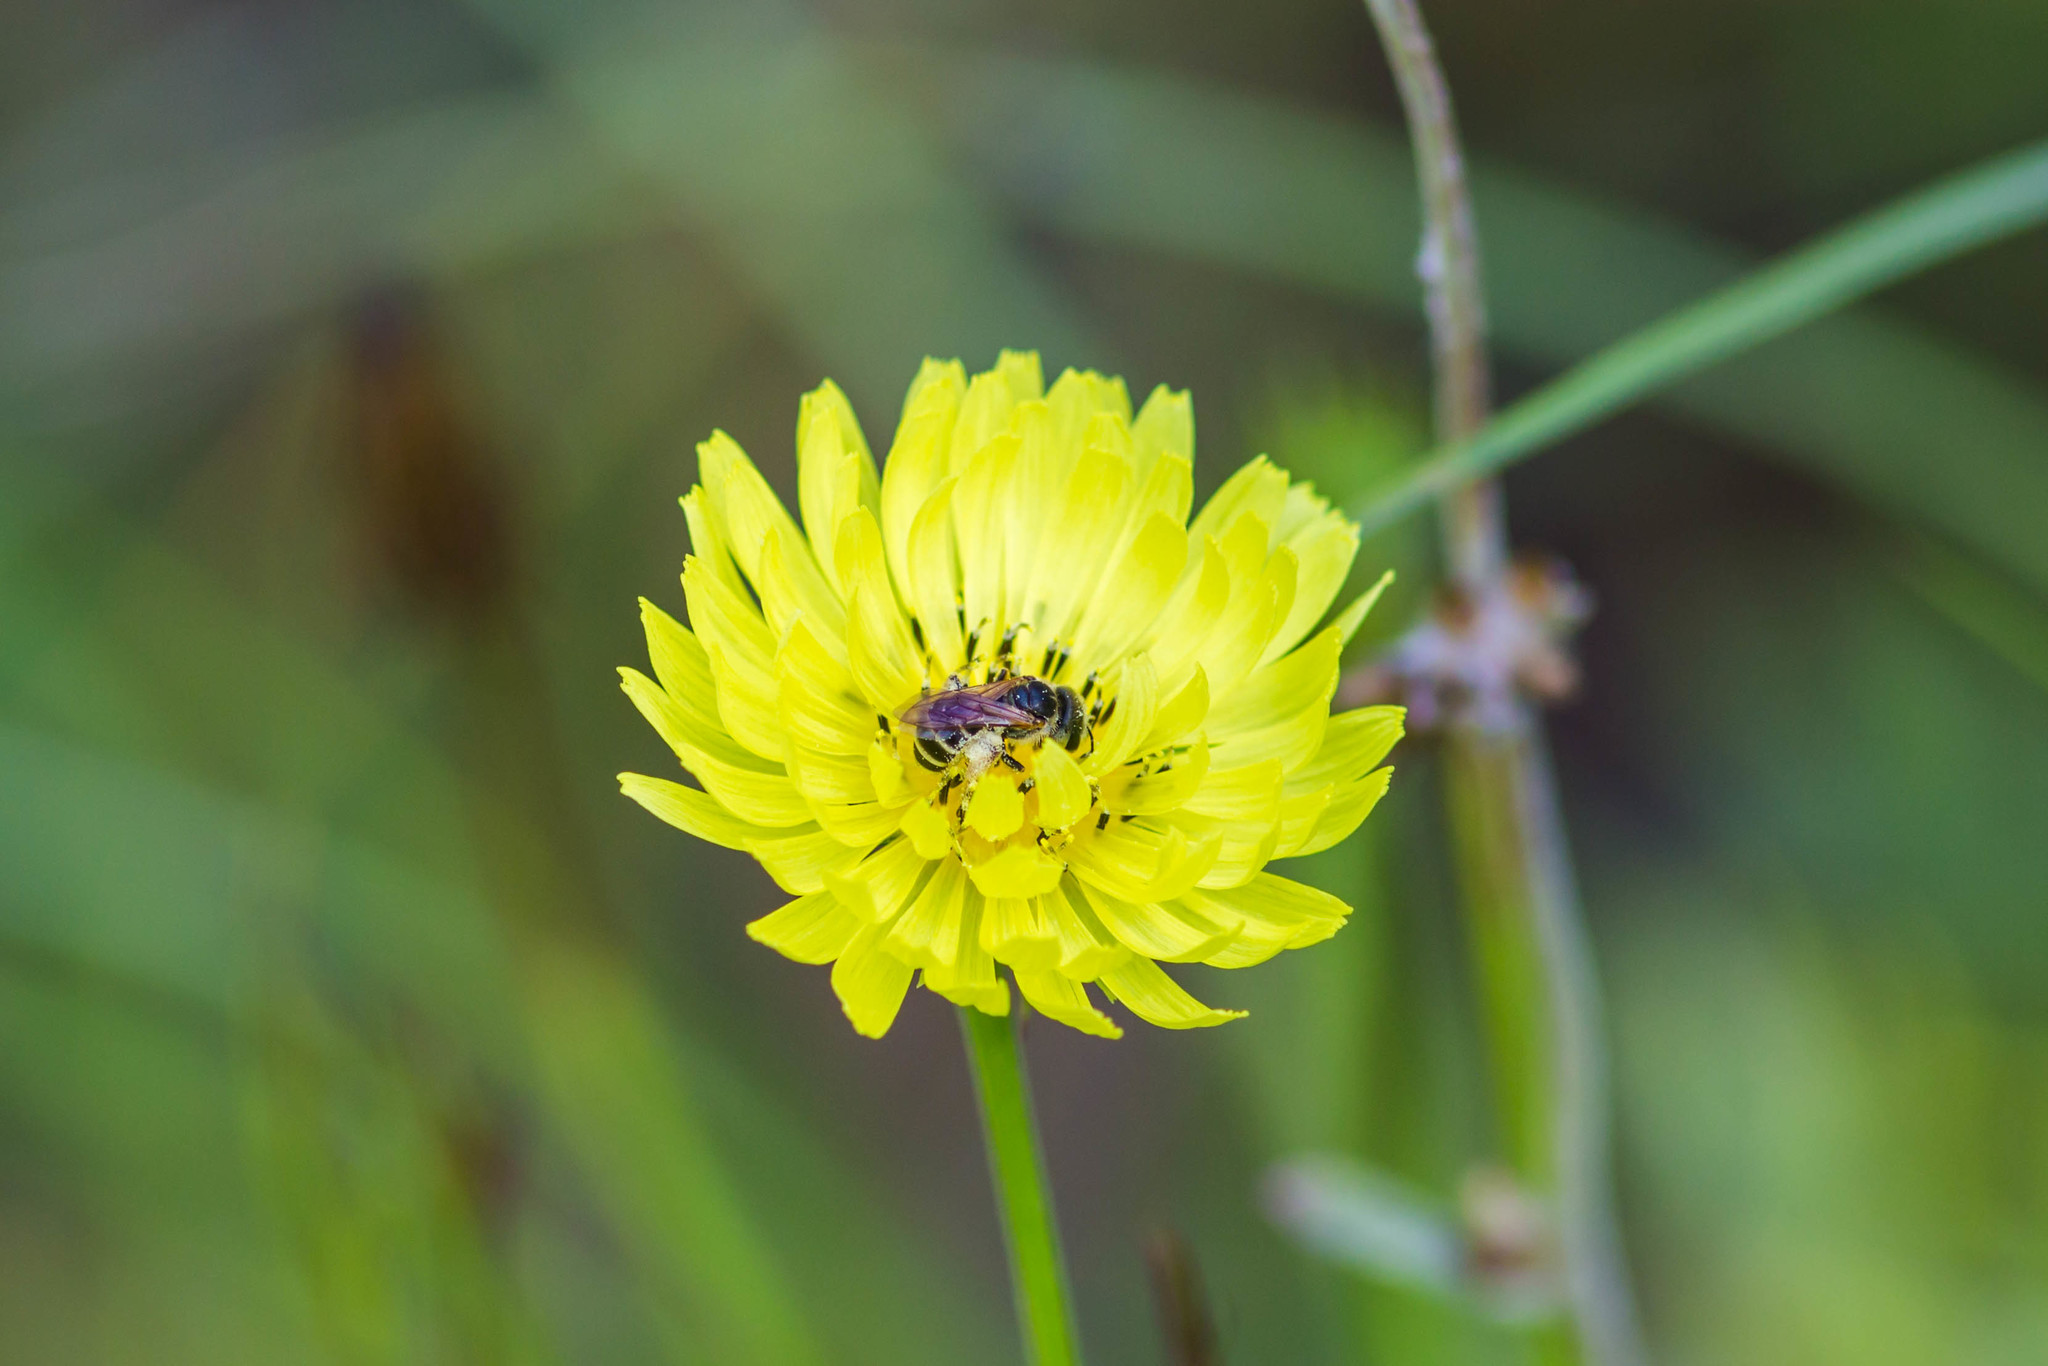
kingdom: Animalia
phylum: Arthropoda
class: Insecta
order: Hymenoptera
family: Halictidae
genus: Halictus
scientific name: Halictus poeyi
